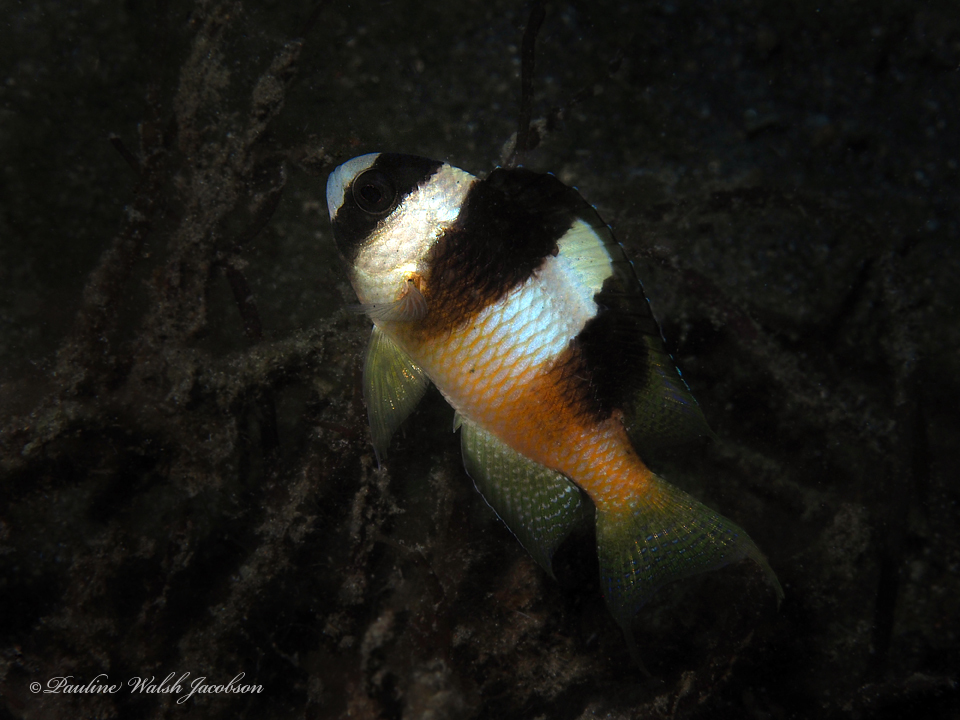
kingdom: Animalia
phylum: Chordata
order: Perciformes
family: Pomacentridae
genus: Amblypomacentrus
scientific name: Amblypomacentrus breviceps
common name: Black-banded demoiselle
